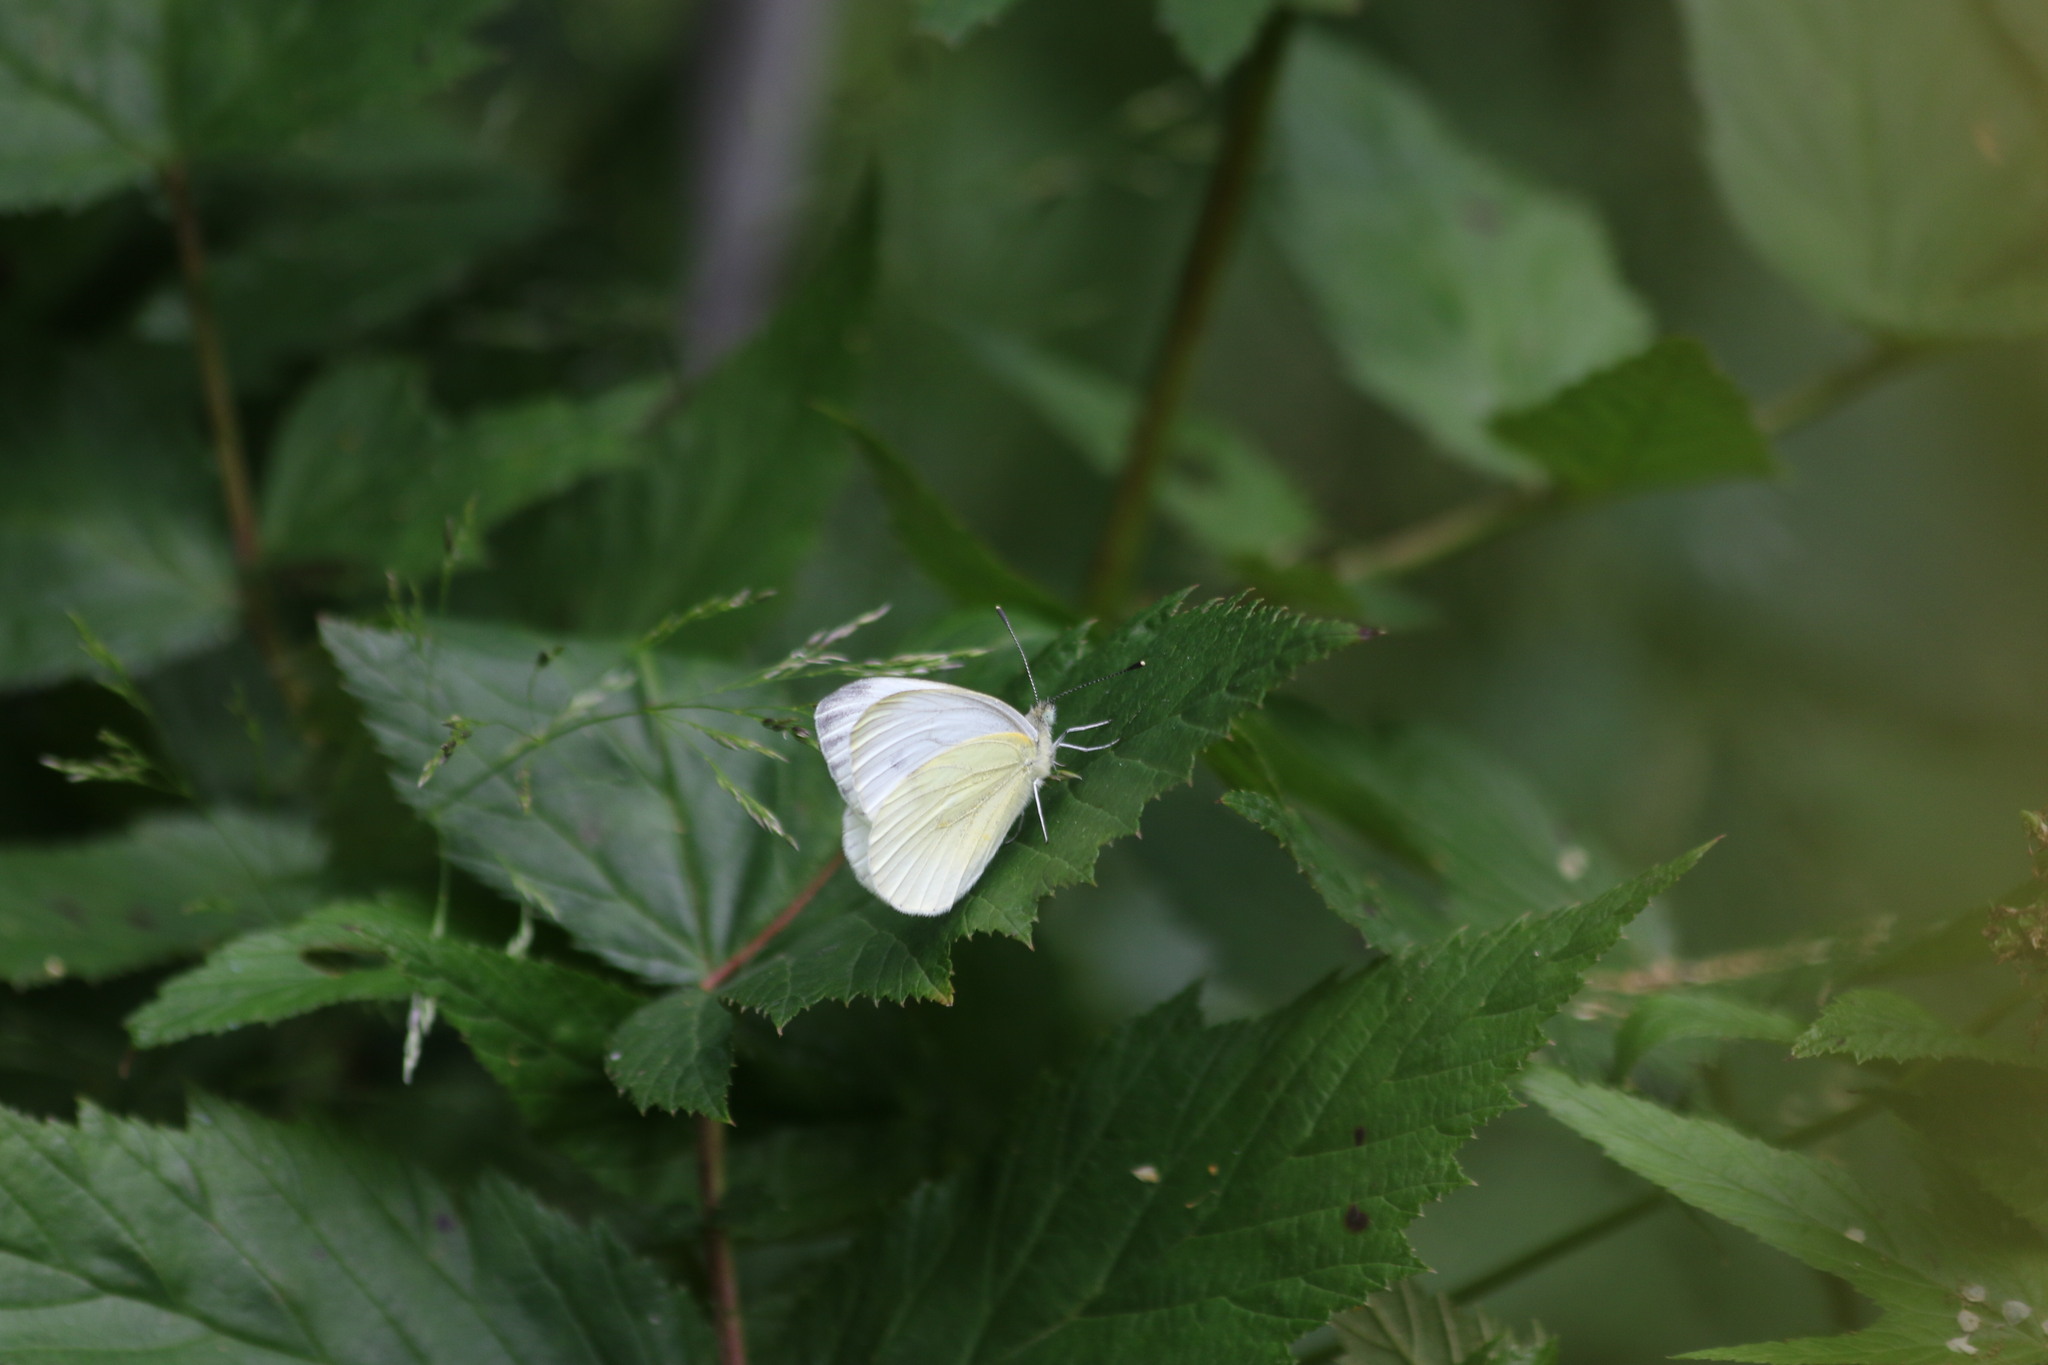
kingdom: Animalia
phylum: Arthropoda
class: Insecta
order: Lepidoptera
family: Pieridae
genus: Pieris
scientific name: Pieris napi
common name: Green-veined white
